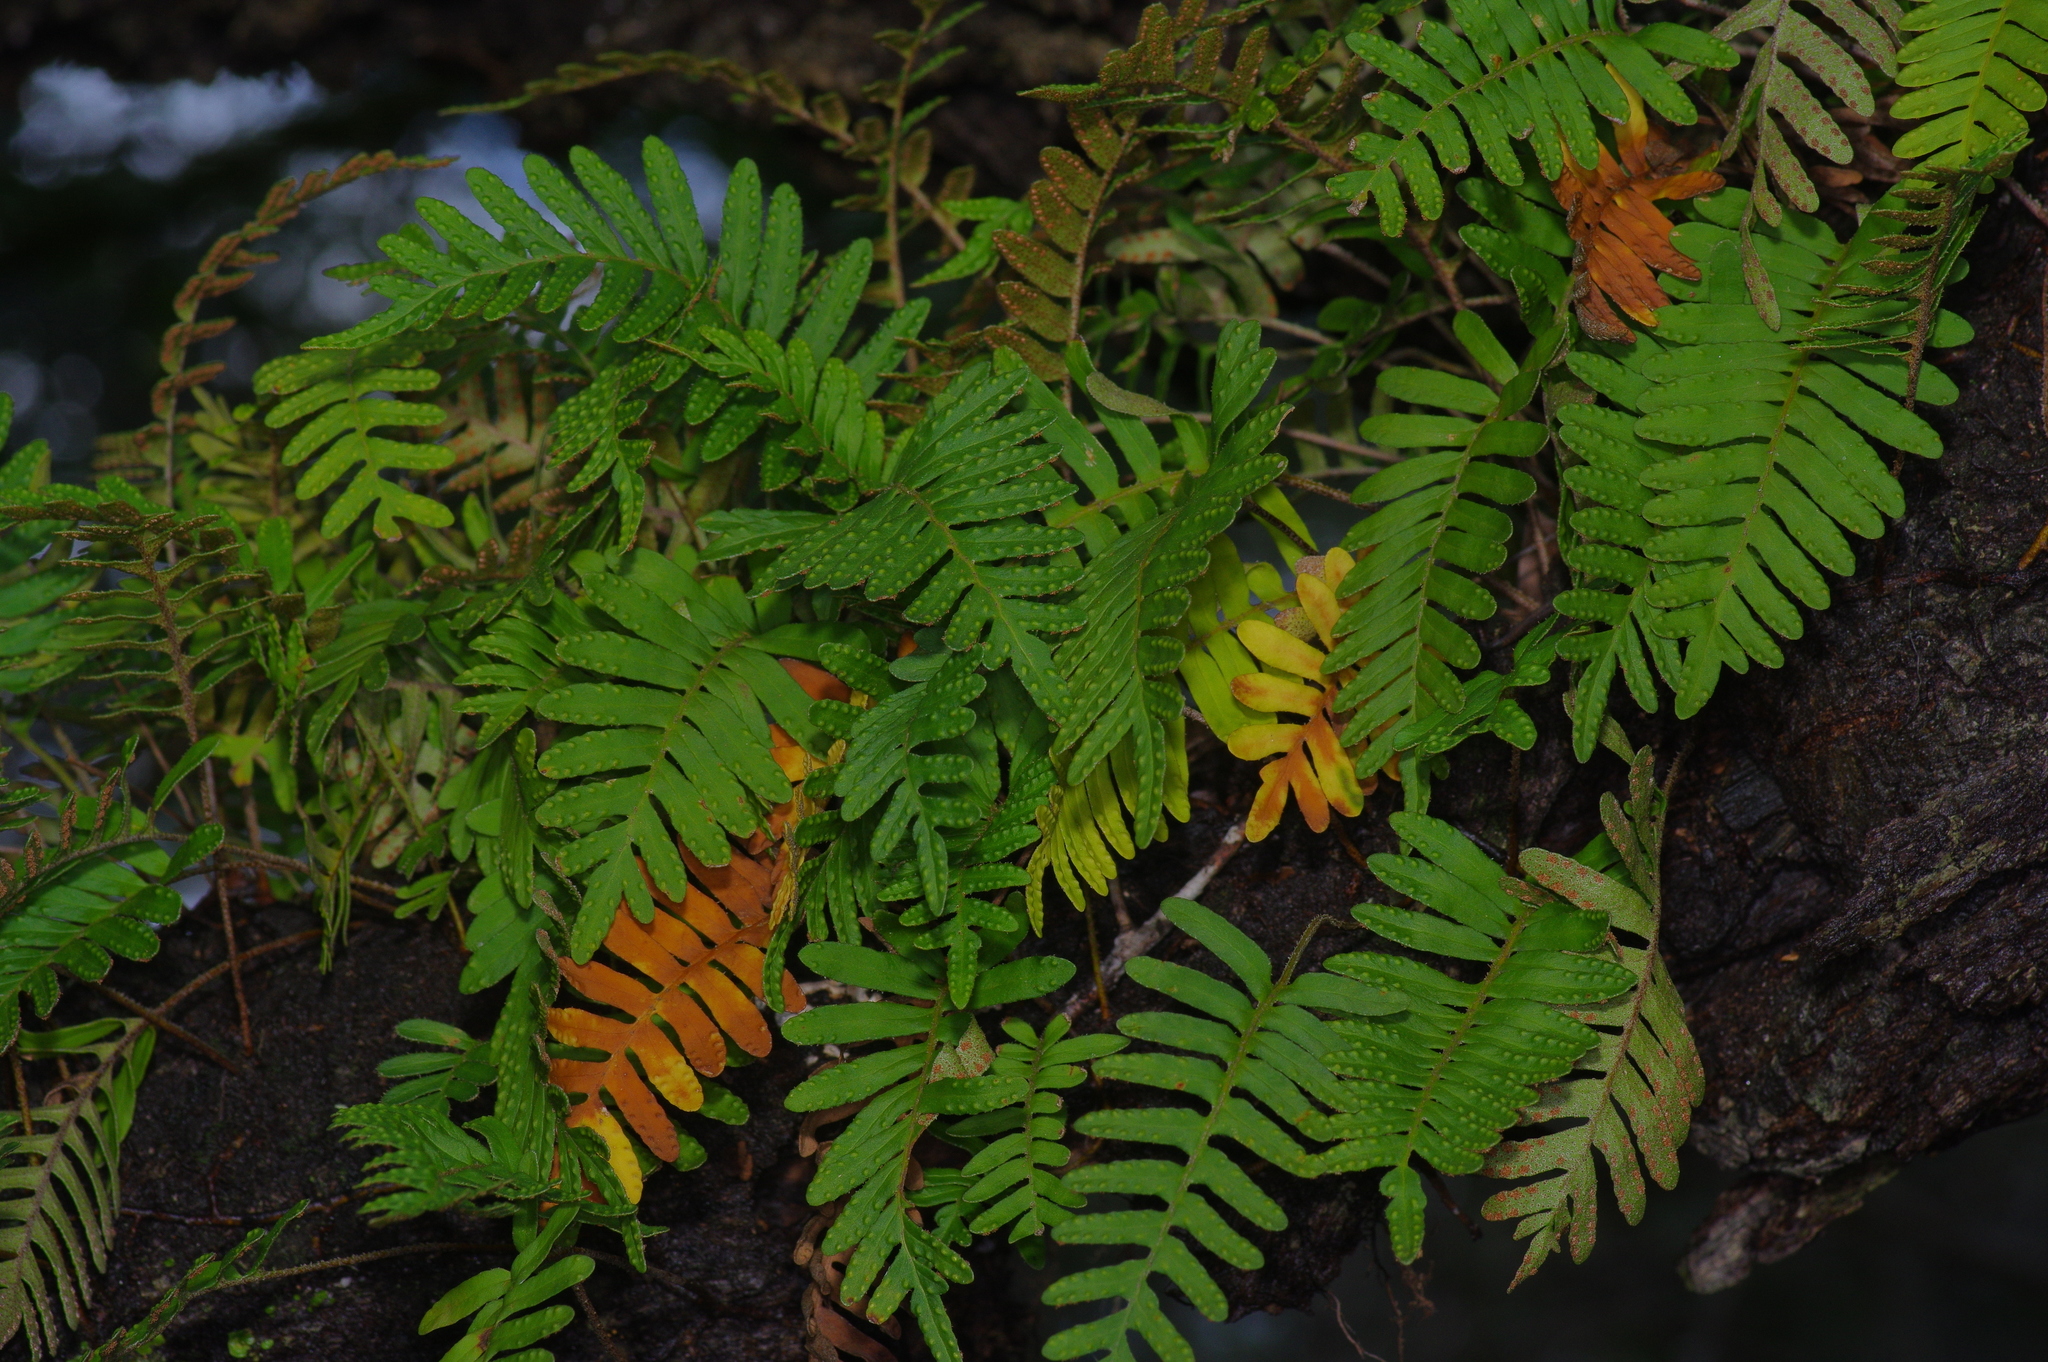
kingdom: Plantae
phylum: Tracheophyta
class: Polypodiopsida
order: Polypodiales
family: Polypodiaceae
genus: Pleopeltis
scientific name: Pleopeltis michauxiana
